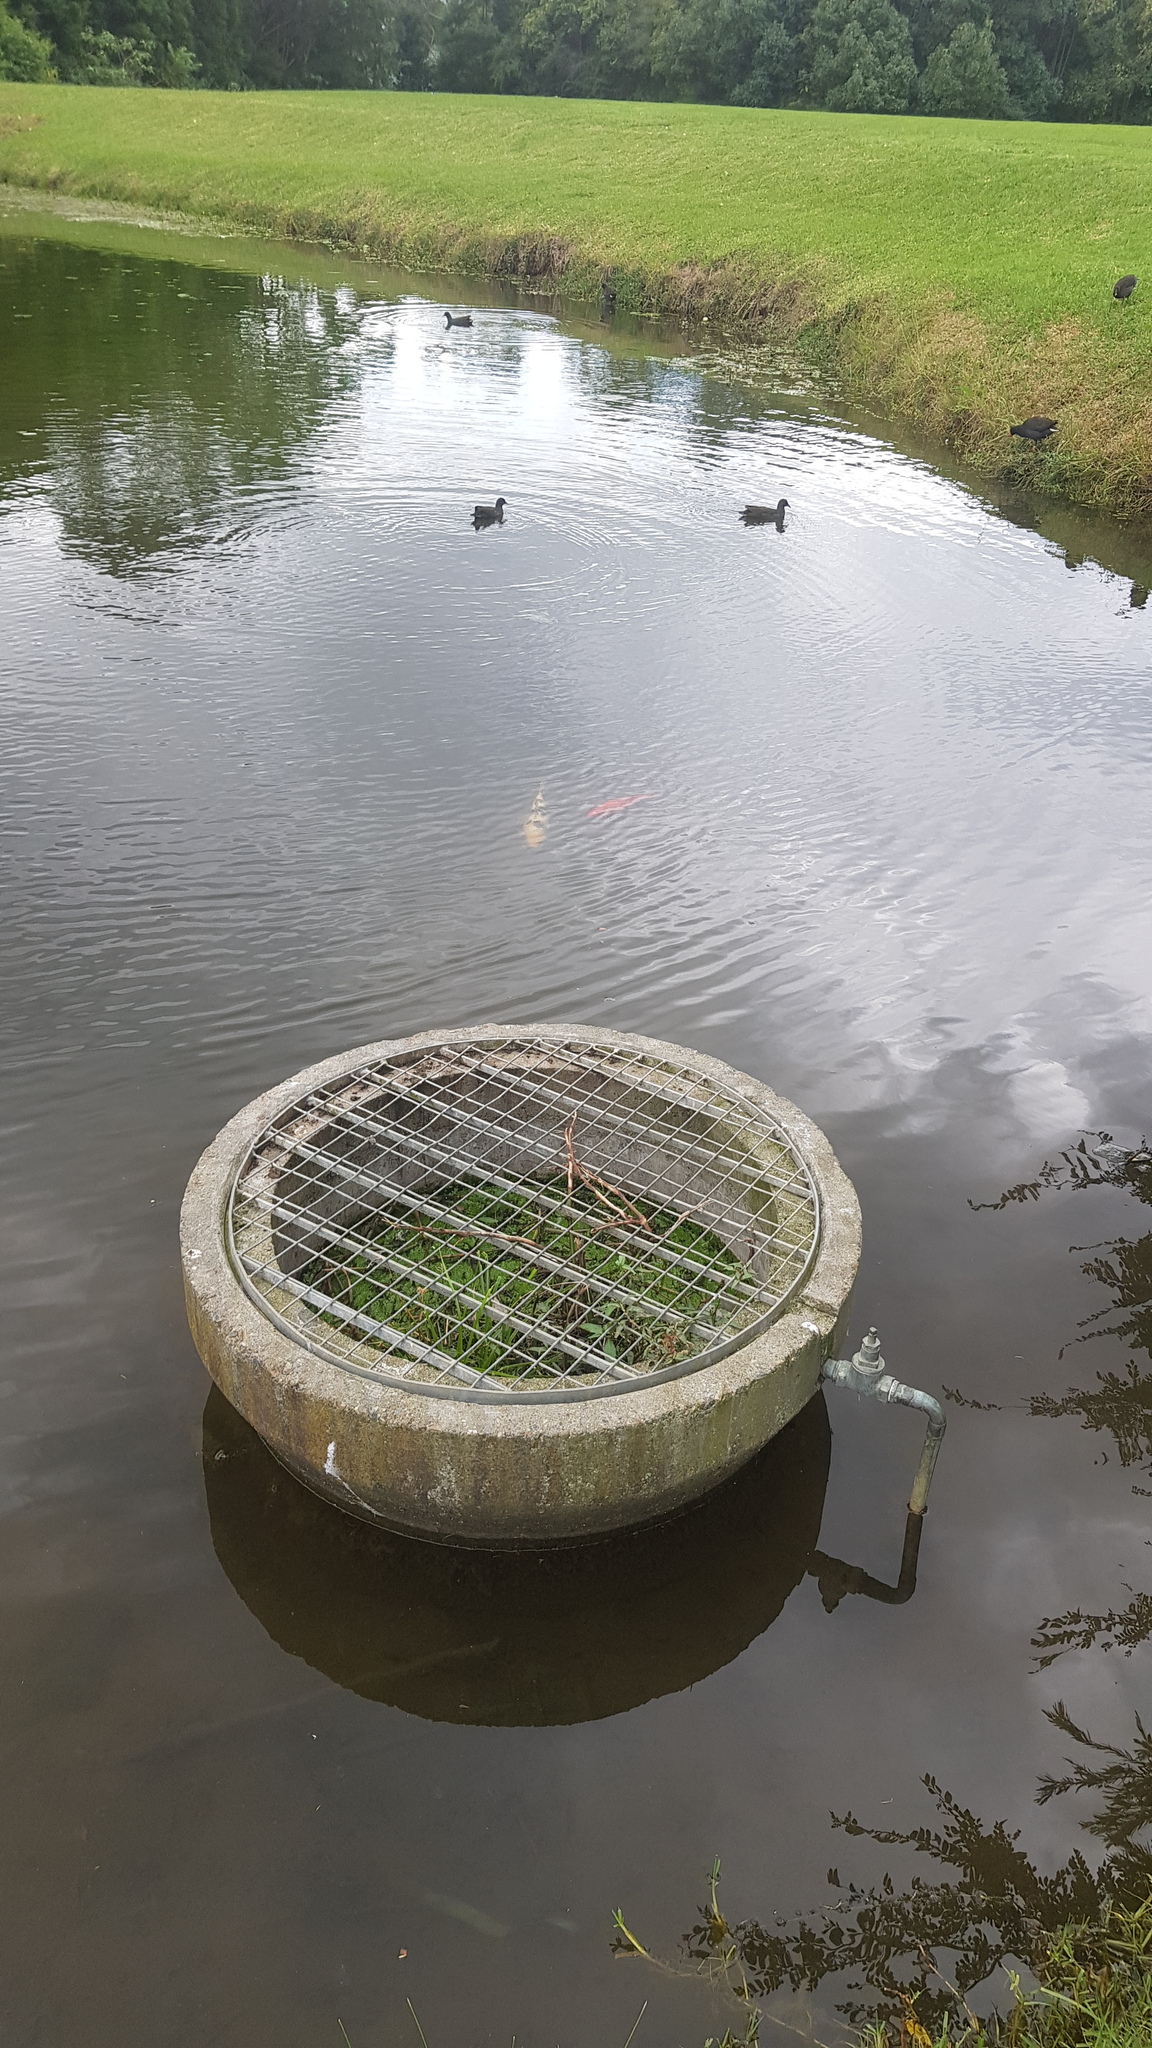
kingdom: Animalia
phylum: Chordata
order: Cypriniformes
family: Cyprinidae
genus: Cyprinus
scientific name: Cyprinus rubrofuscus
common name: Koi
